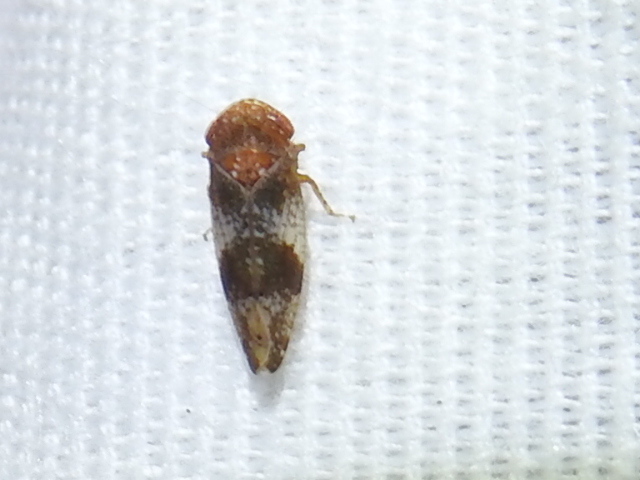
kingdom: Animalia
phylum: Arthropoda
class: Insecta
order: Hemiptera
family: Cicadellidae
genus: Norvellina
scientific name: Norvellina helenae
